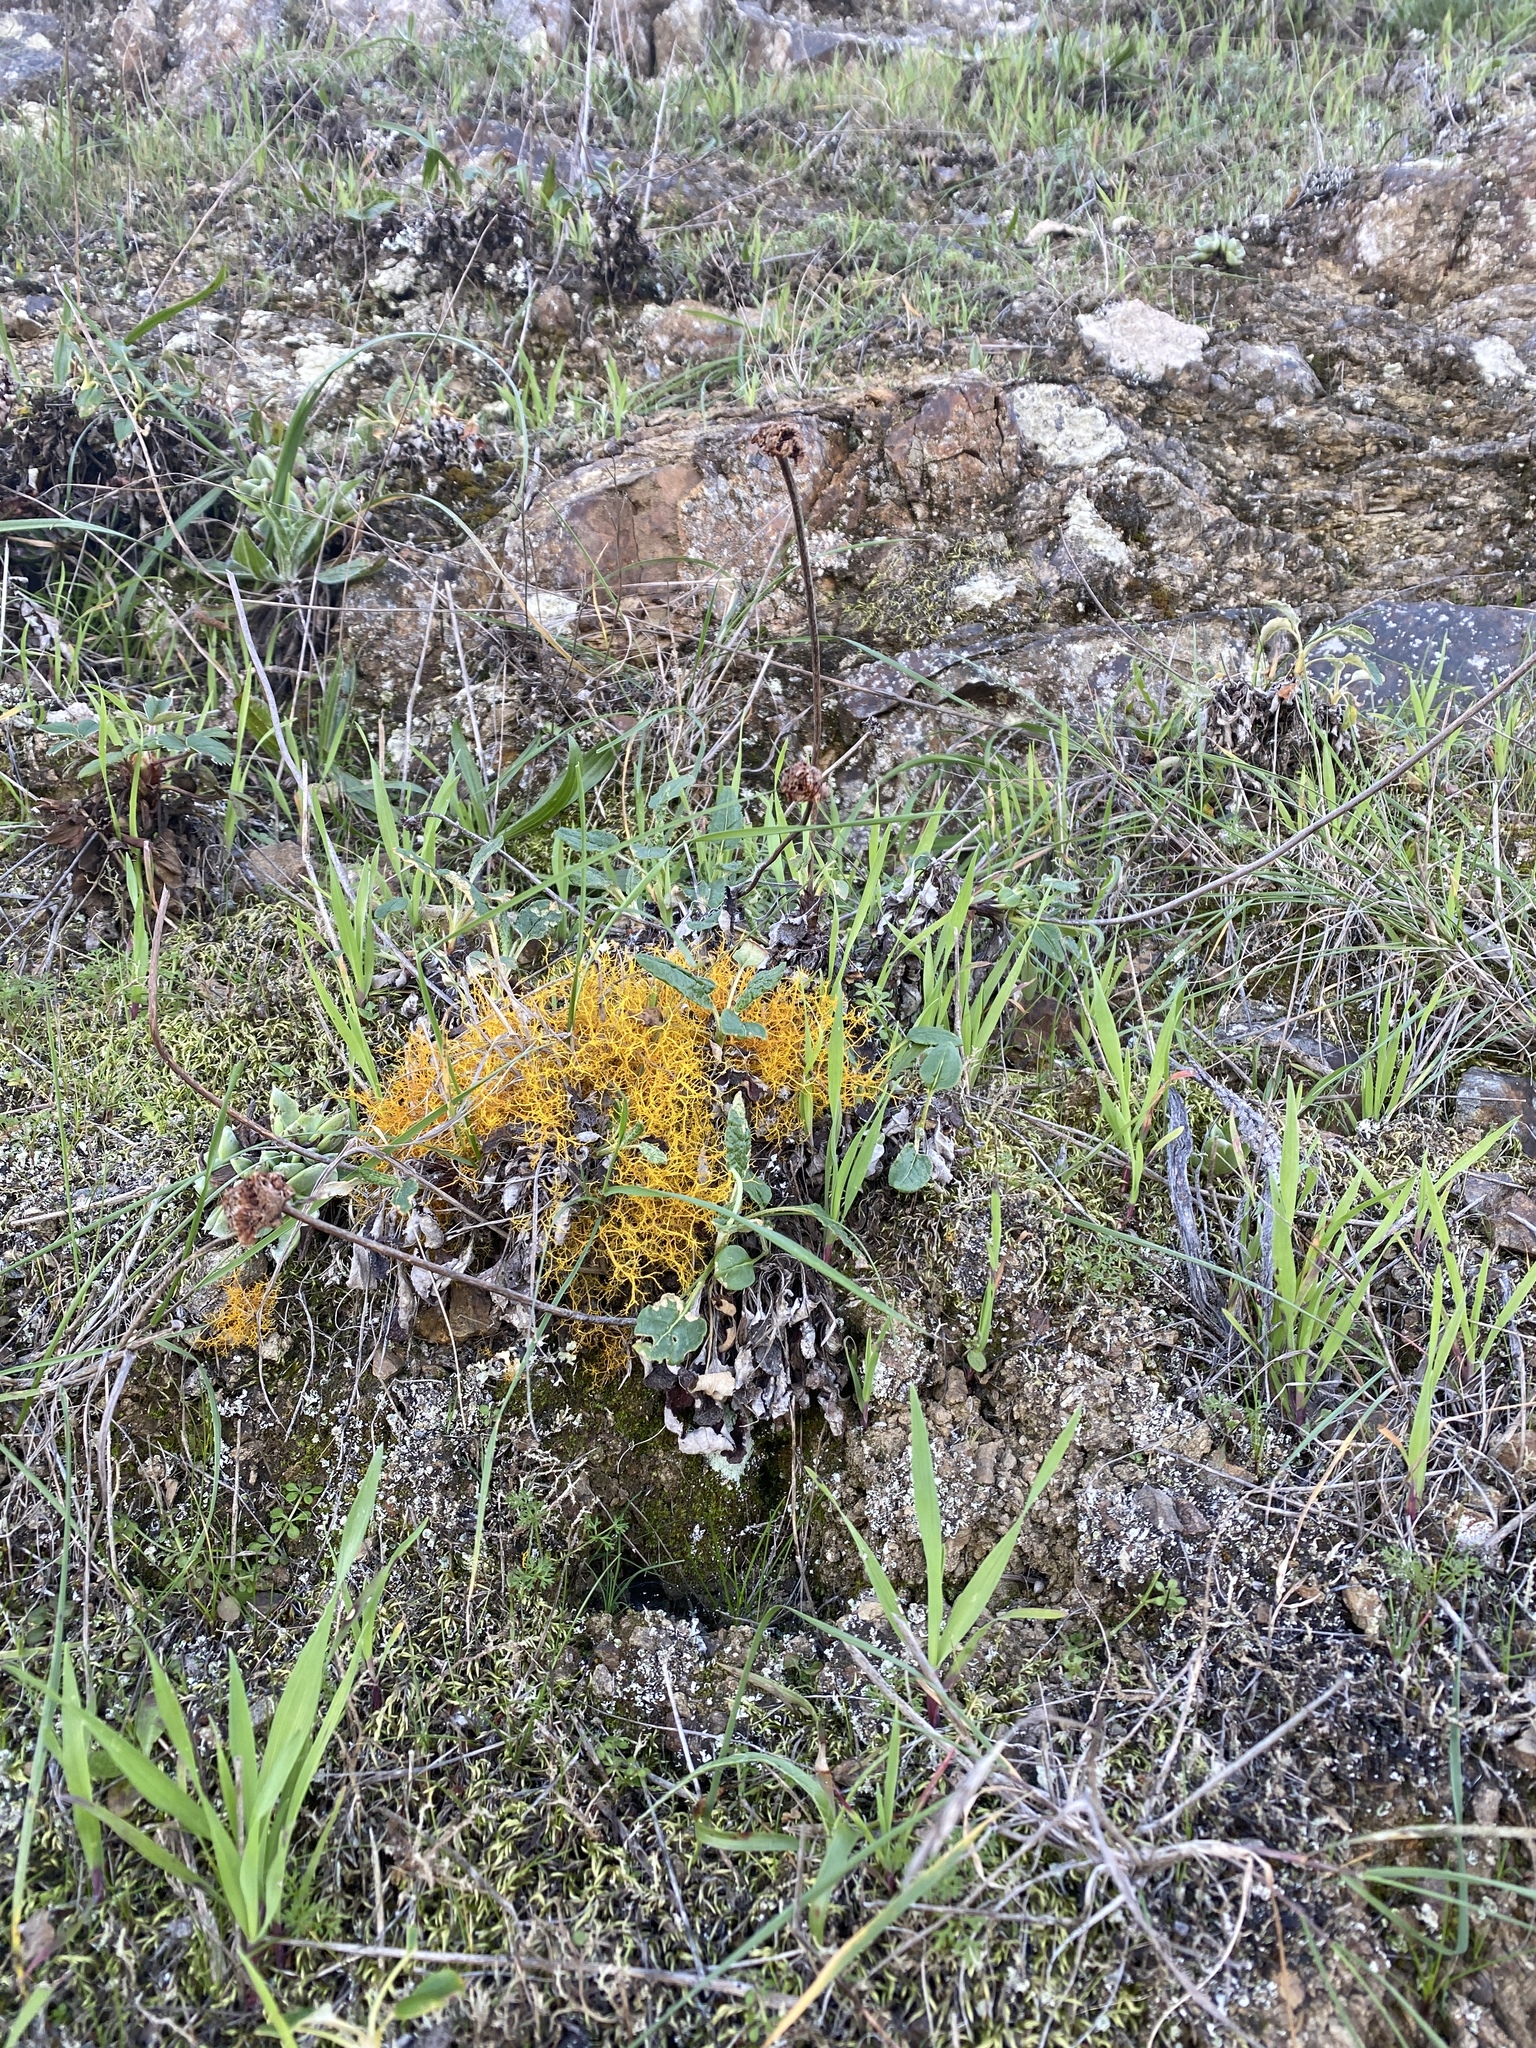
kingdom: Fungi
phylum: Ascomycota
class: Lecanoromycetes
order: Teloschistales
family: Teloschistaceae
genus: Teloschistes
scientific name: Teloschistes flavicans
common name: Golden hair-lichen
